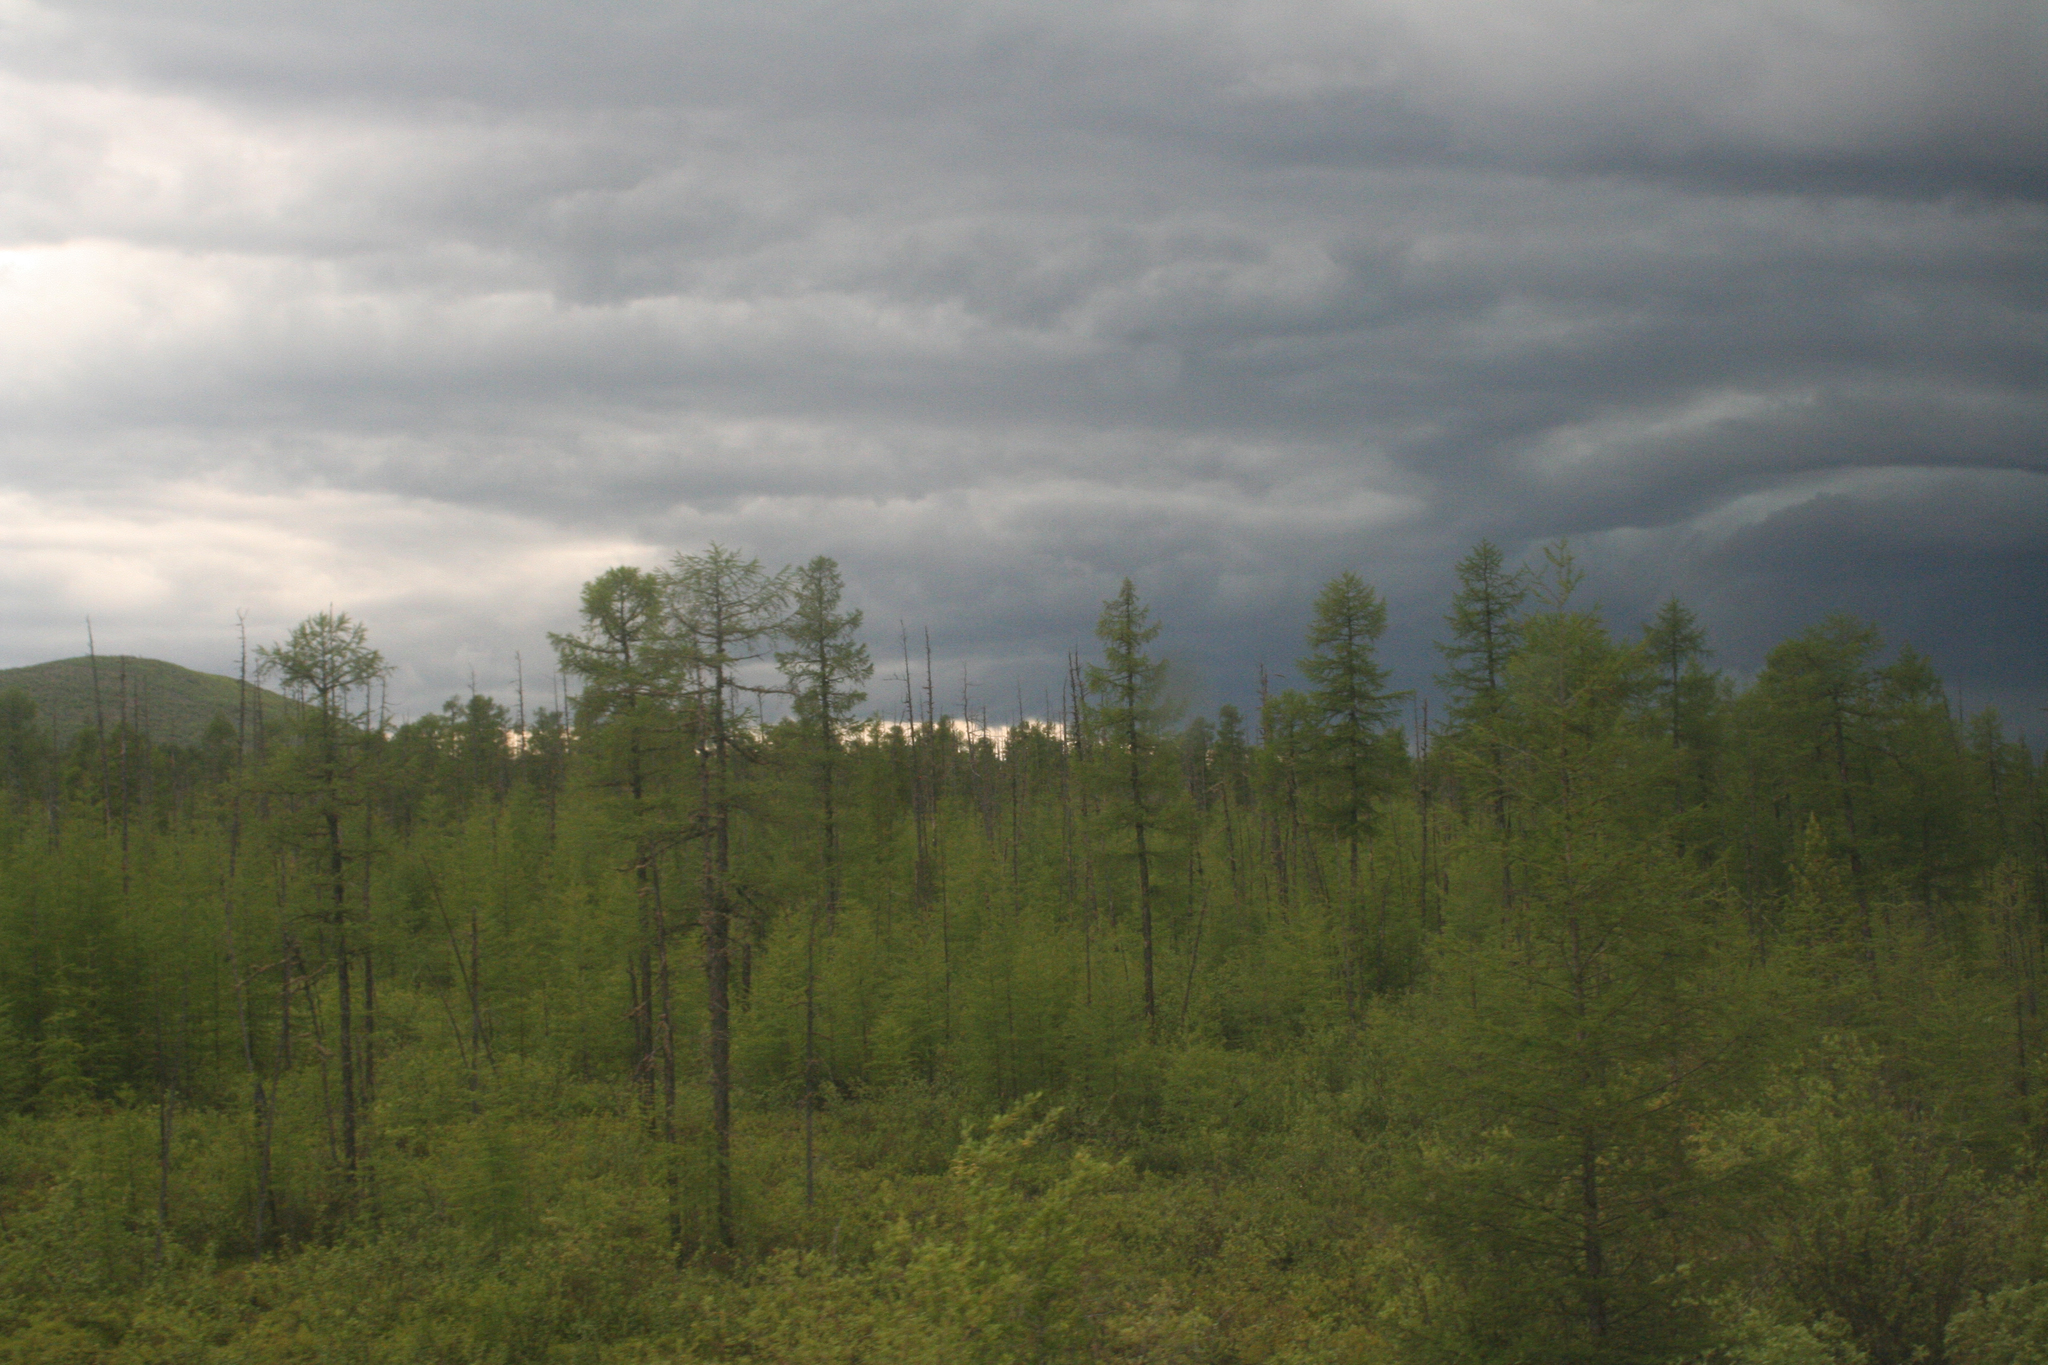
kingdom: Plantae
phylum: Tracheophyta
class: Pinopsida
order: Pinales
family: Pinaceae
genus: Larix
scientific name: Larix gmelinii
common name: Dahurian larch
